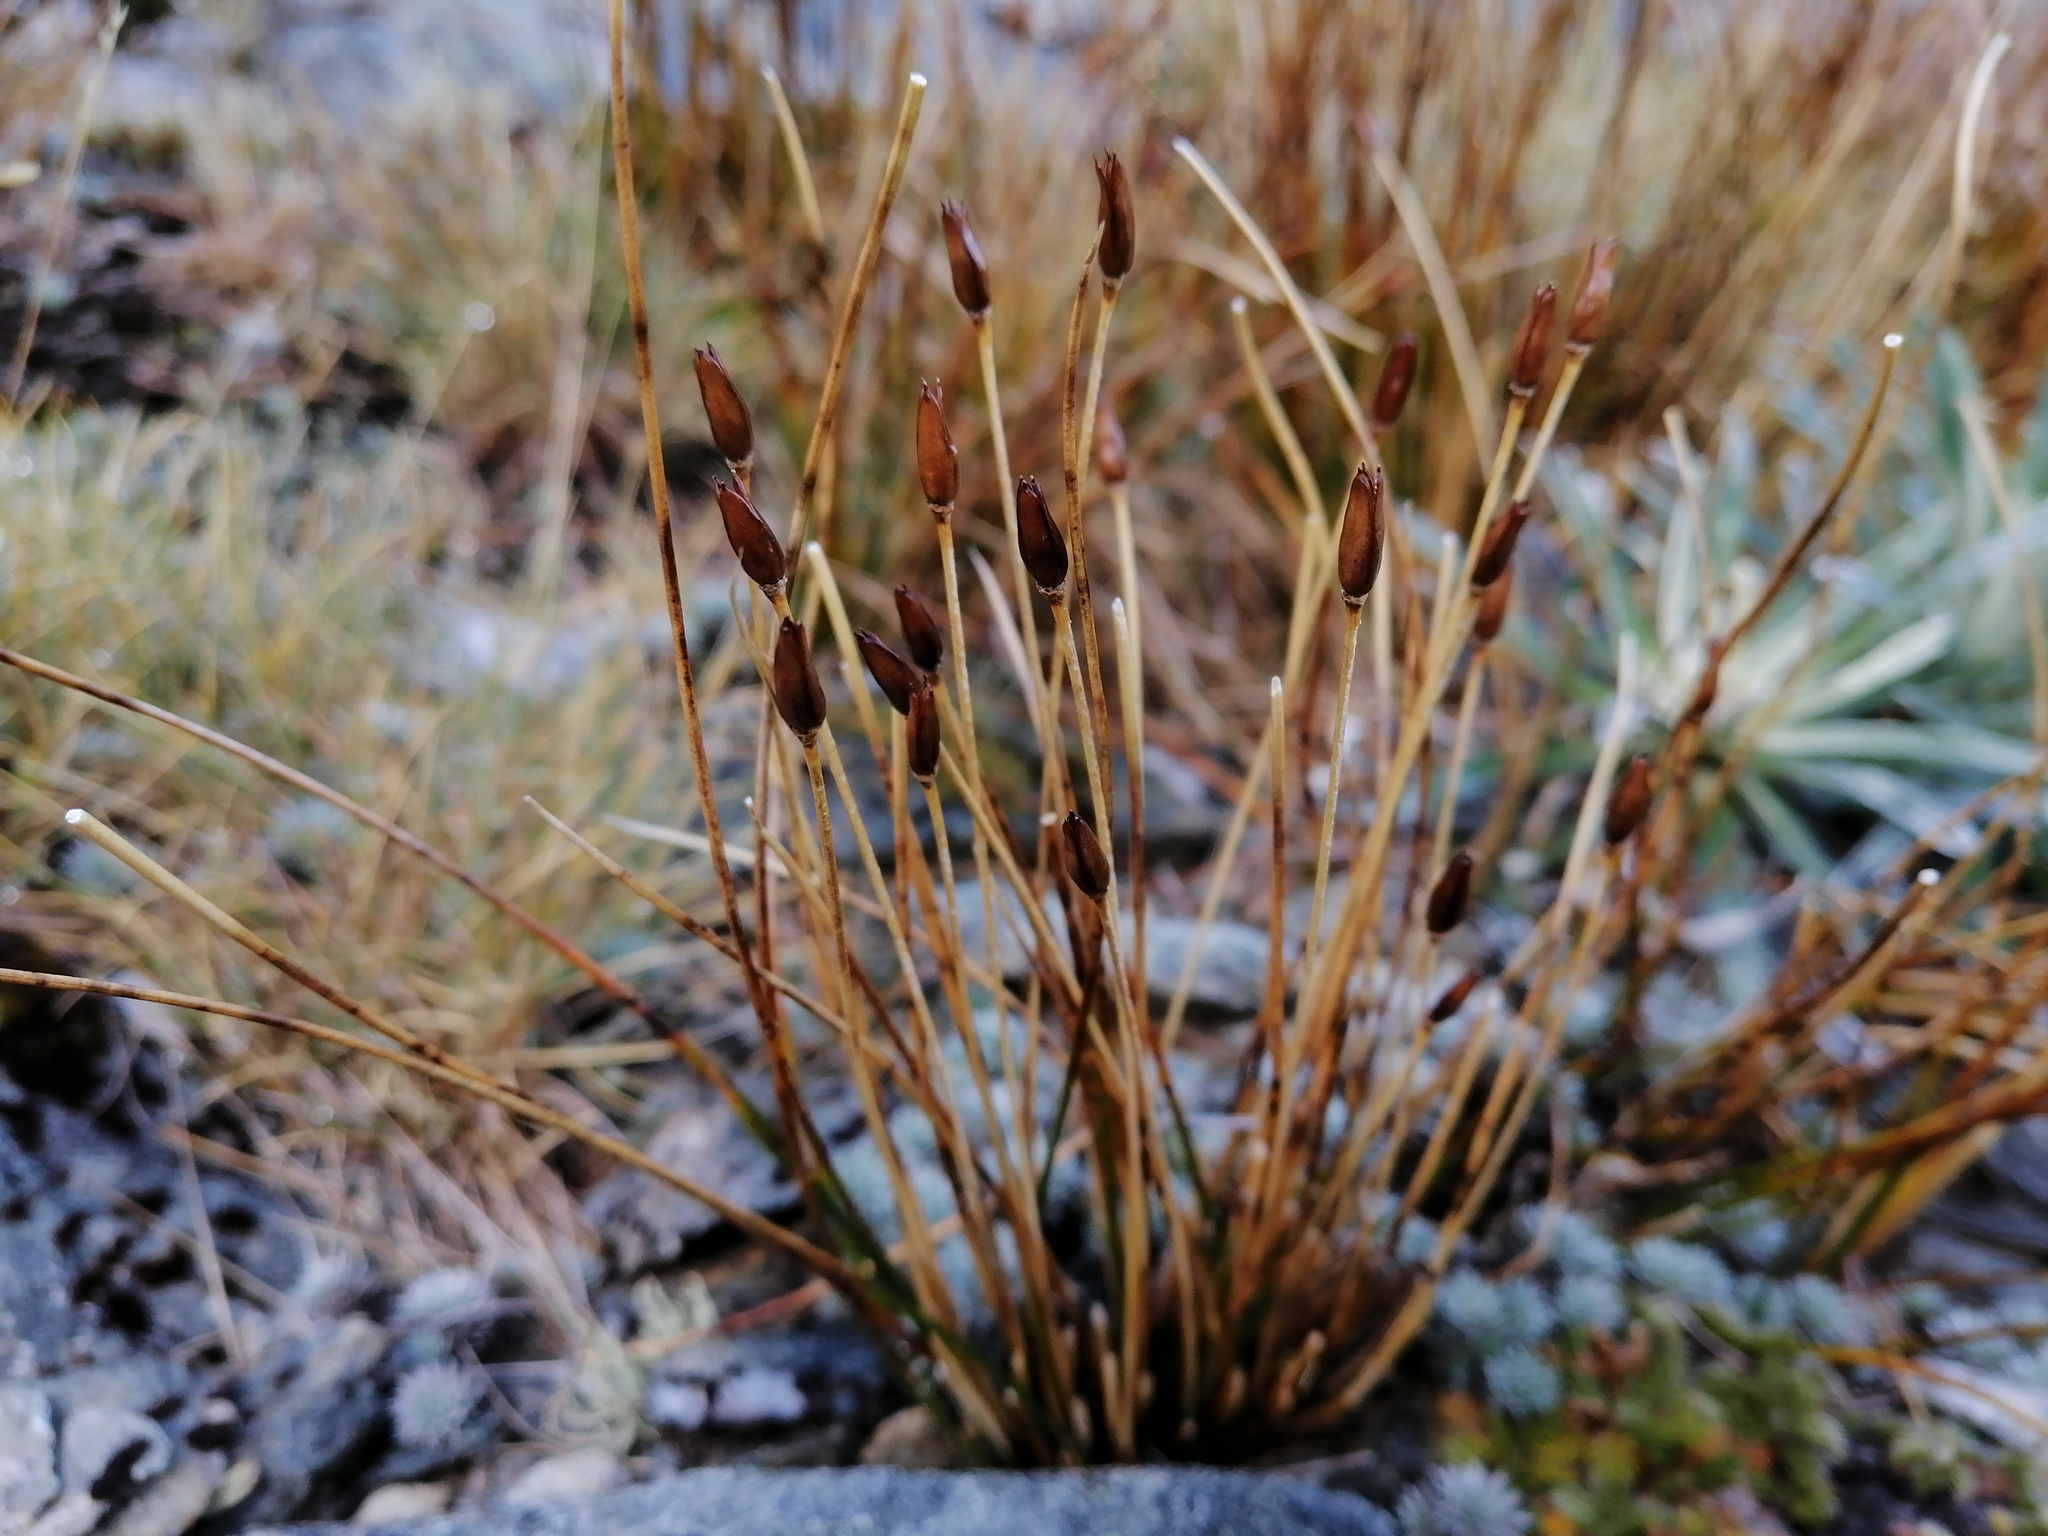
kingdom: Plantae
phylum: Tracheophyta
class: Liliopsida
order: Poales
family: Juncaceae
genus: Marsippospermum
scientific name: Marsippospermum gracile
